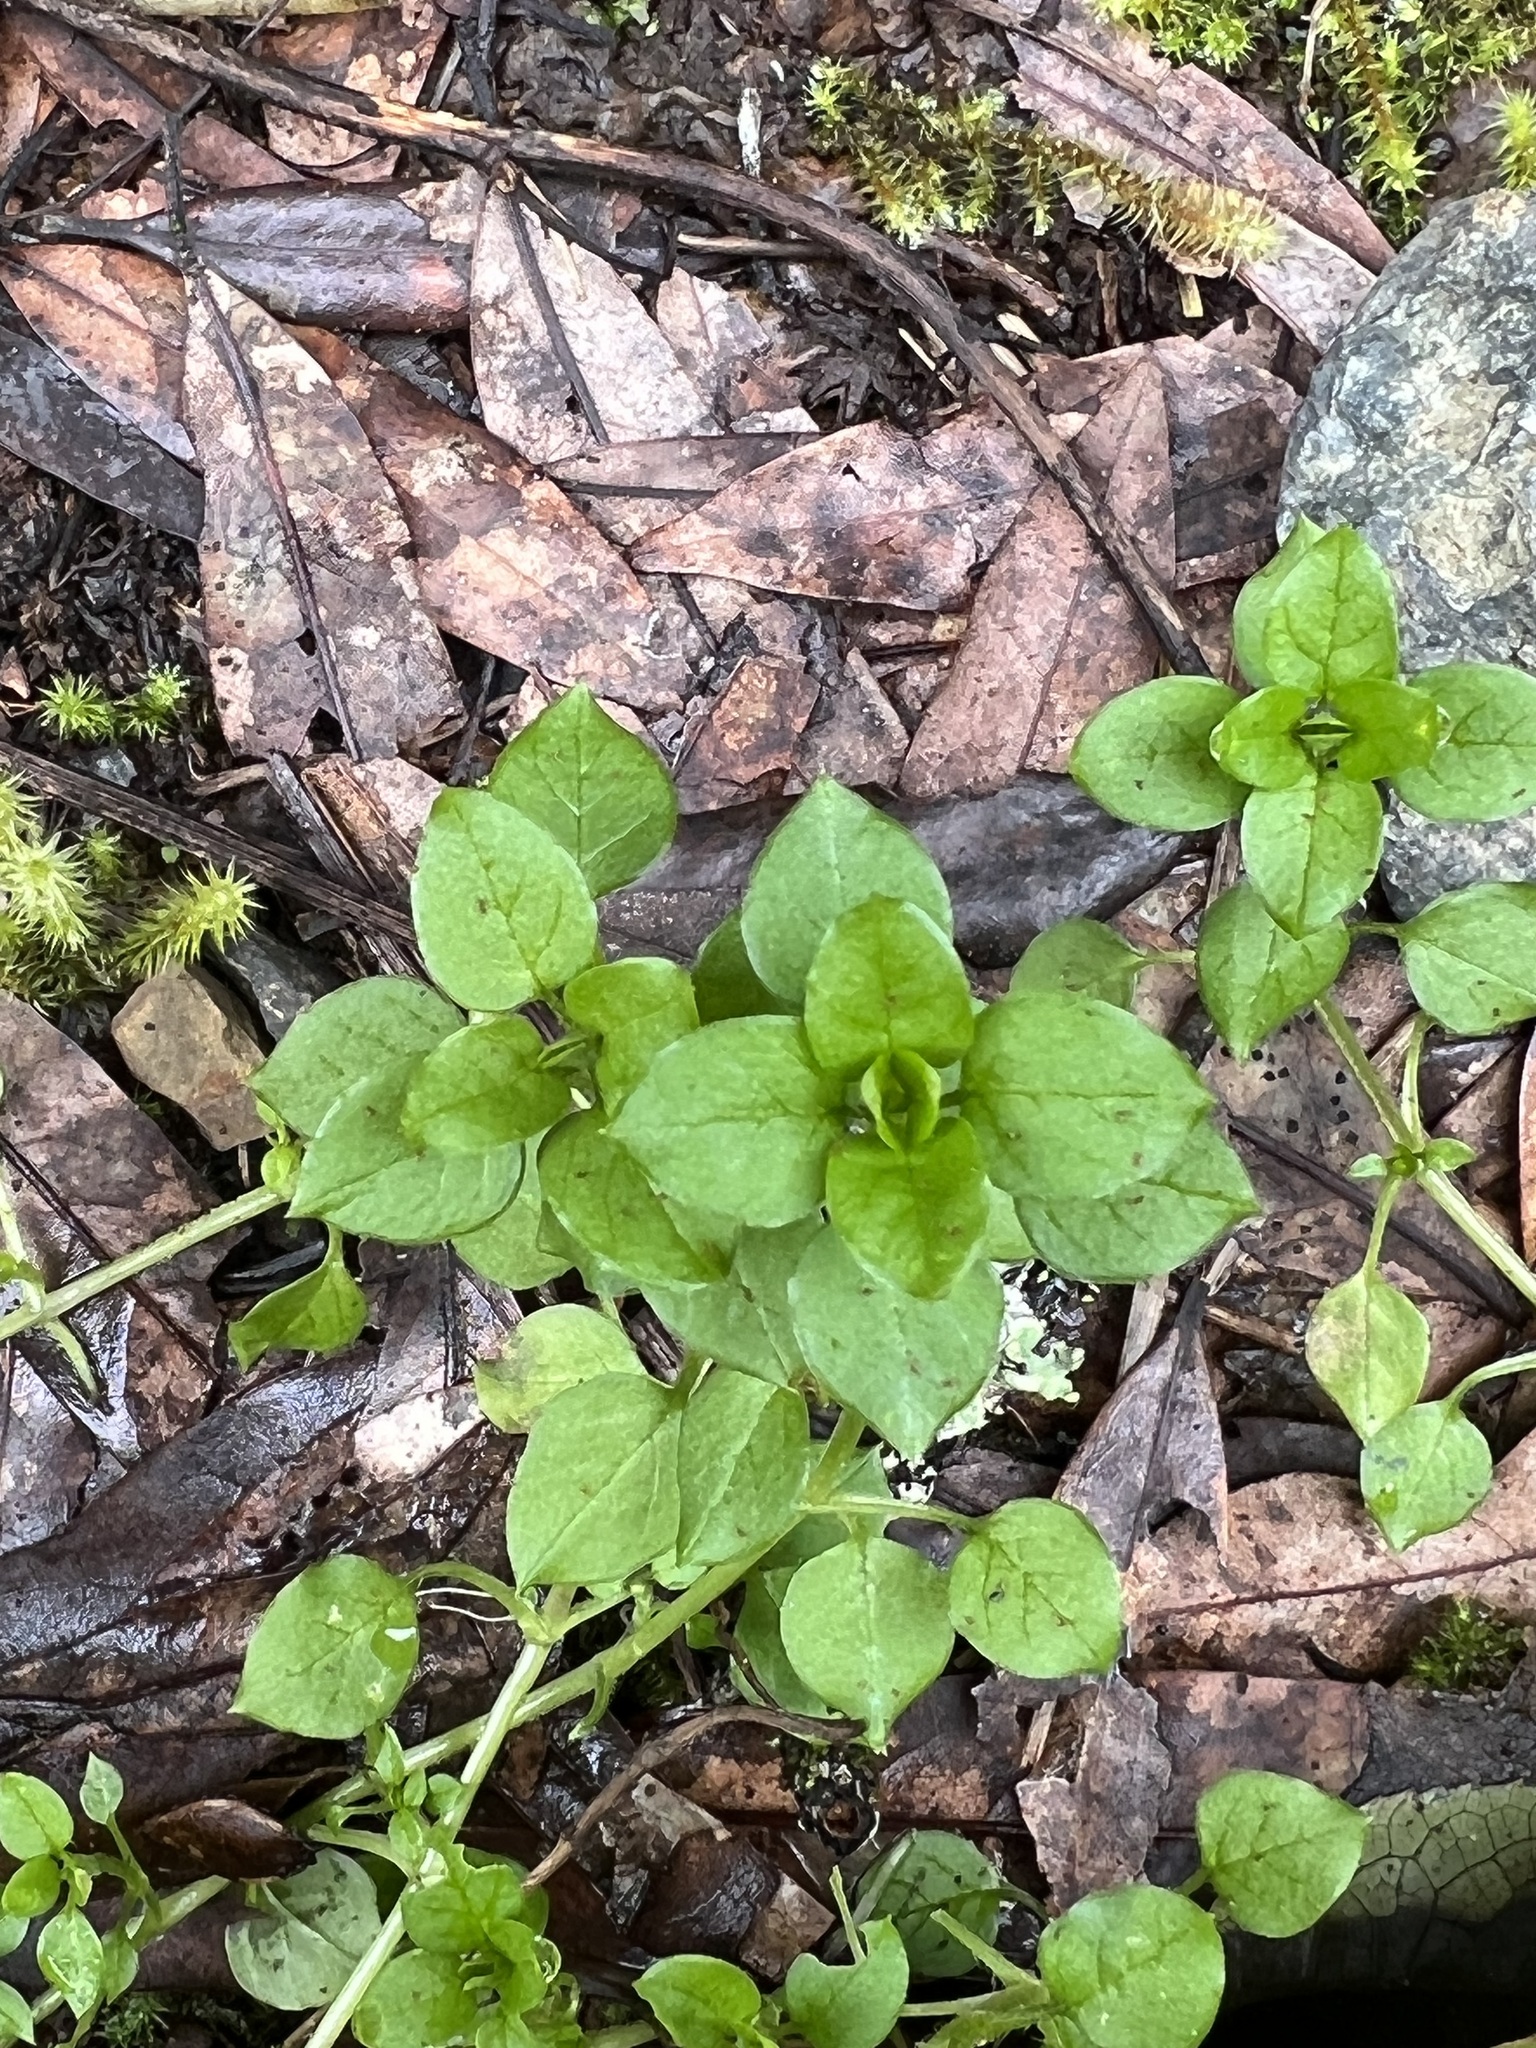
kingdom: Plantae
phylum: Tracheophyta
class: Magnoliopsida
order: Caryophyllales
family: Caryophyllaceae
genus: Stellaria
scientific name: Stellaria media
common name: Common chickweed
